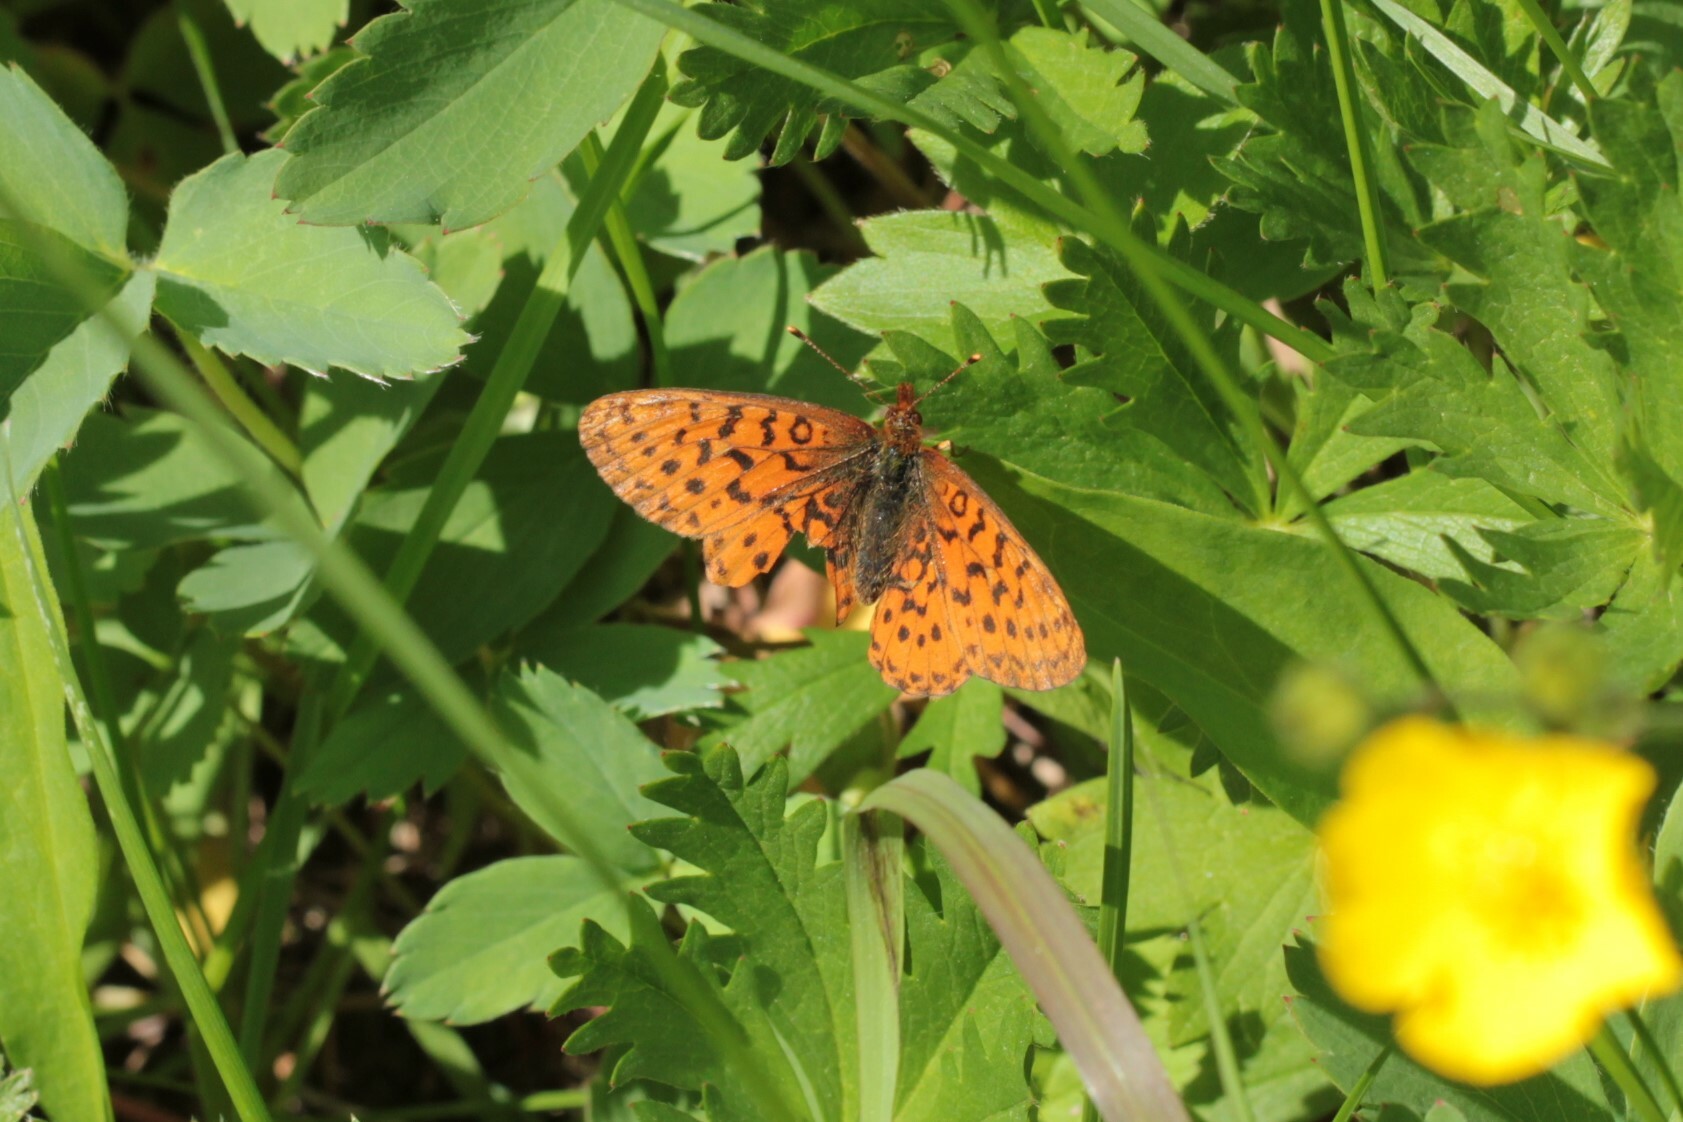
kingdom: Animalia
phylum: Arthropoda
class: Insecta
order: Lepidoptera
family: Nymphalidae
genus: Boloria
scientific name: Boloria epithore
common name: Pacific fritillary
